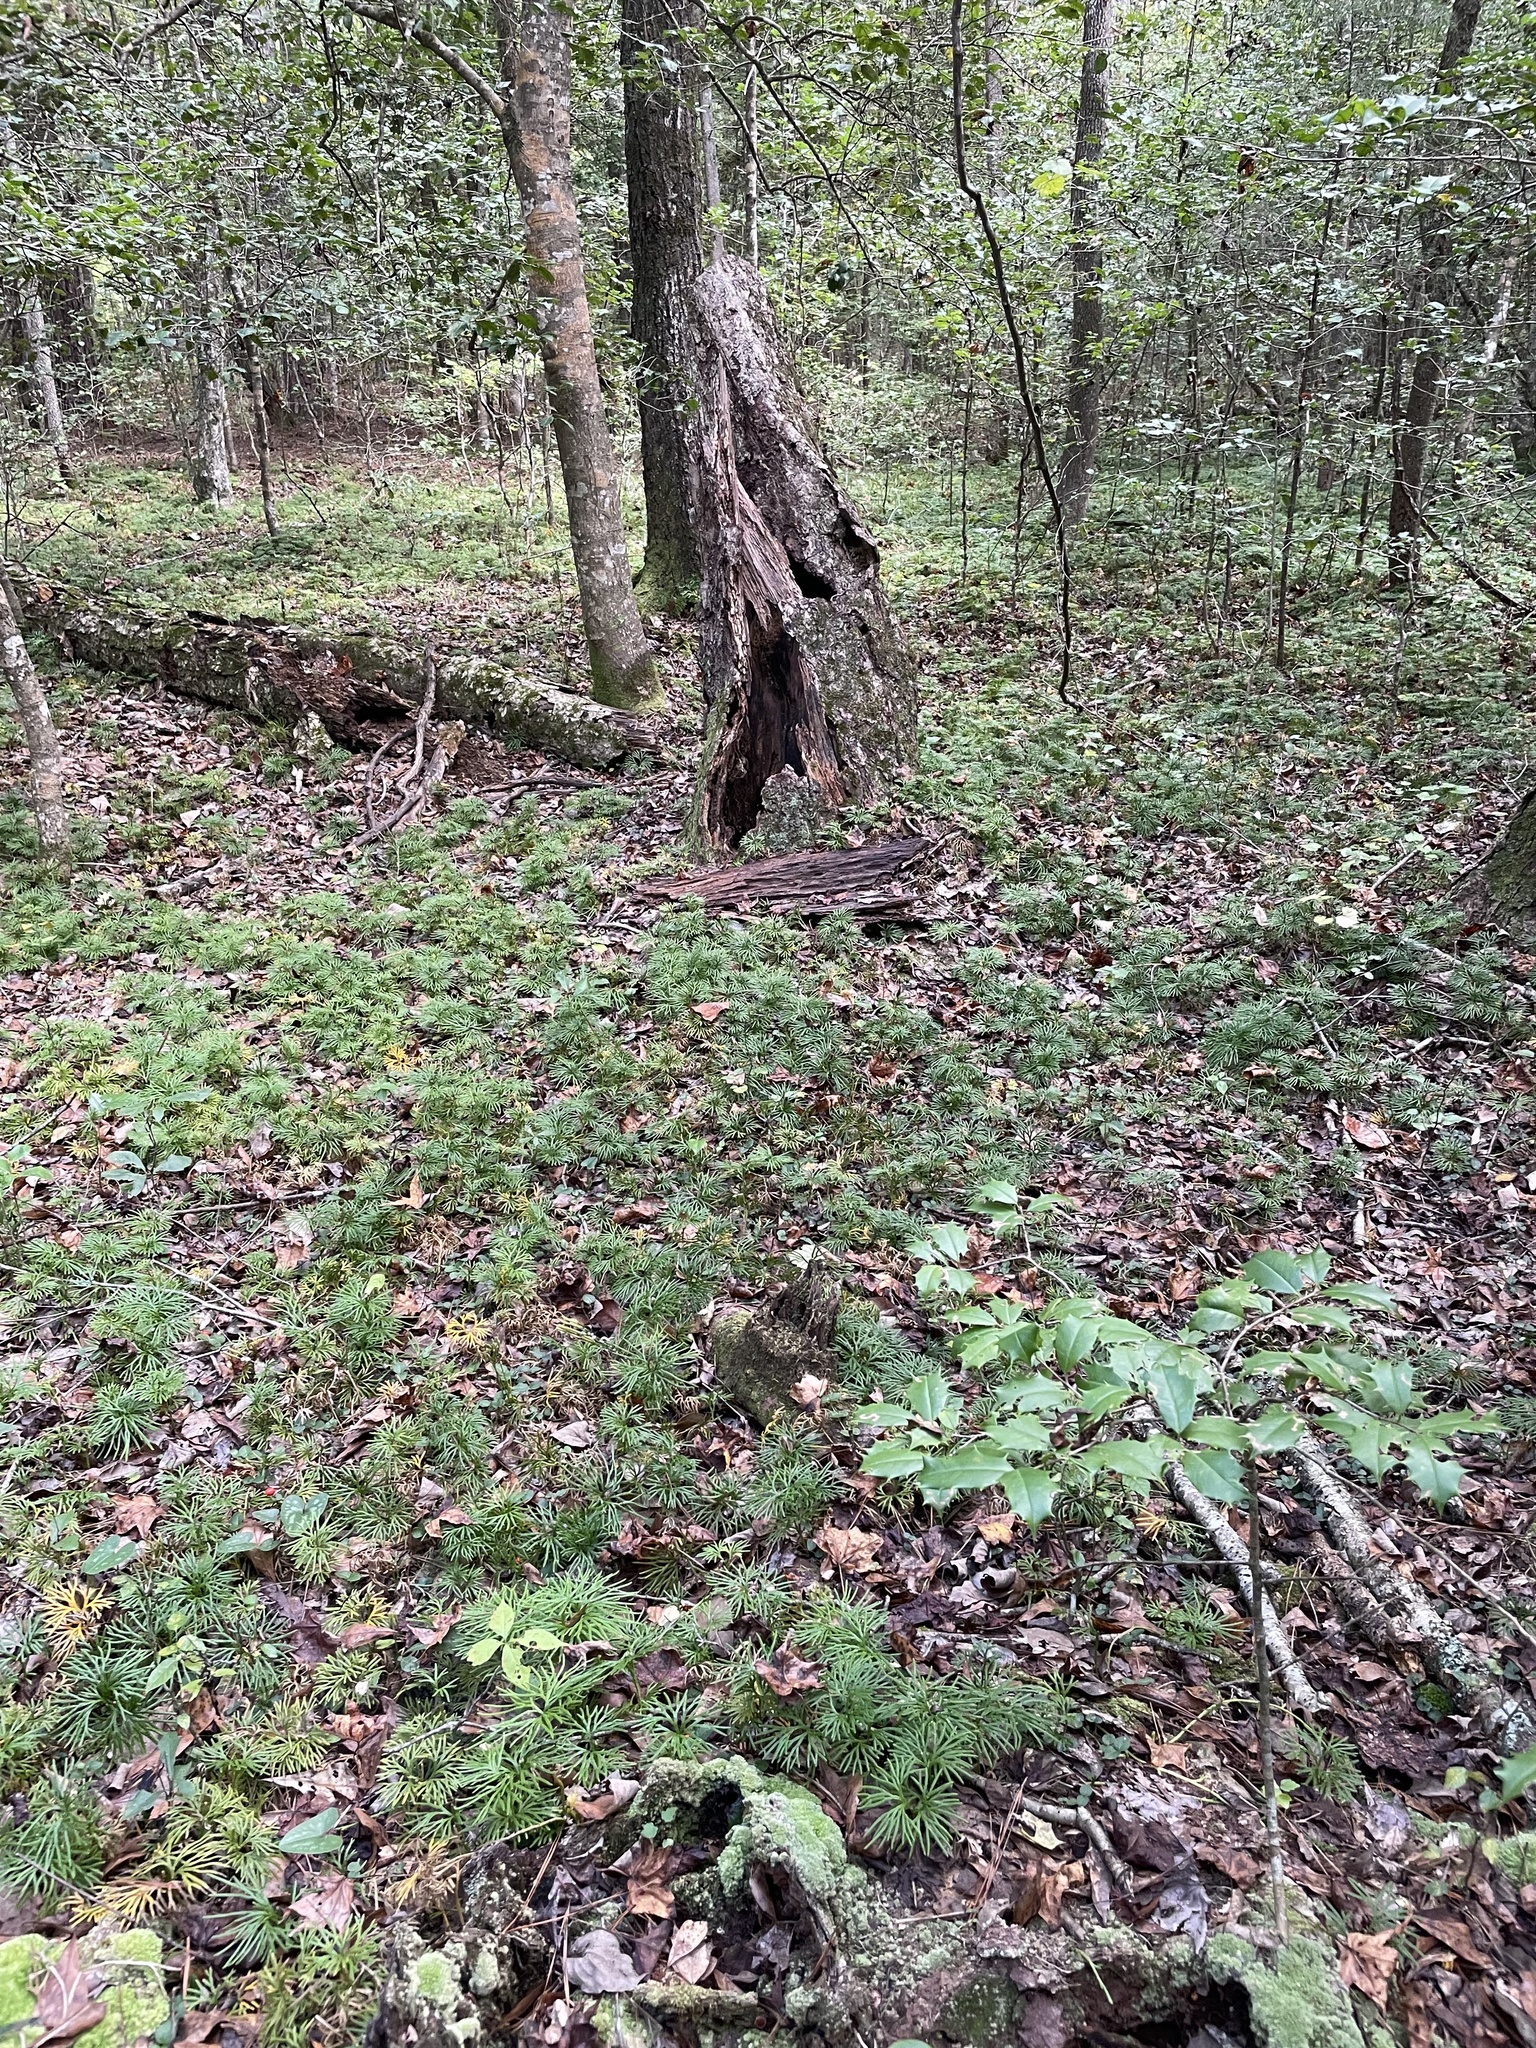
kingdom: Plantae
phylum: Tracheophyta
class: Lycopodiopsida
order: Lycopodiales
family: Lycopodiaceae
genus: Diphasiastrum
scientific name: Diphasiastrum digitatum
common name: Southern running-pine
